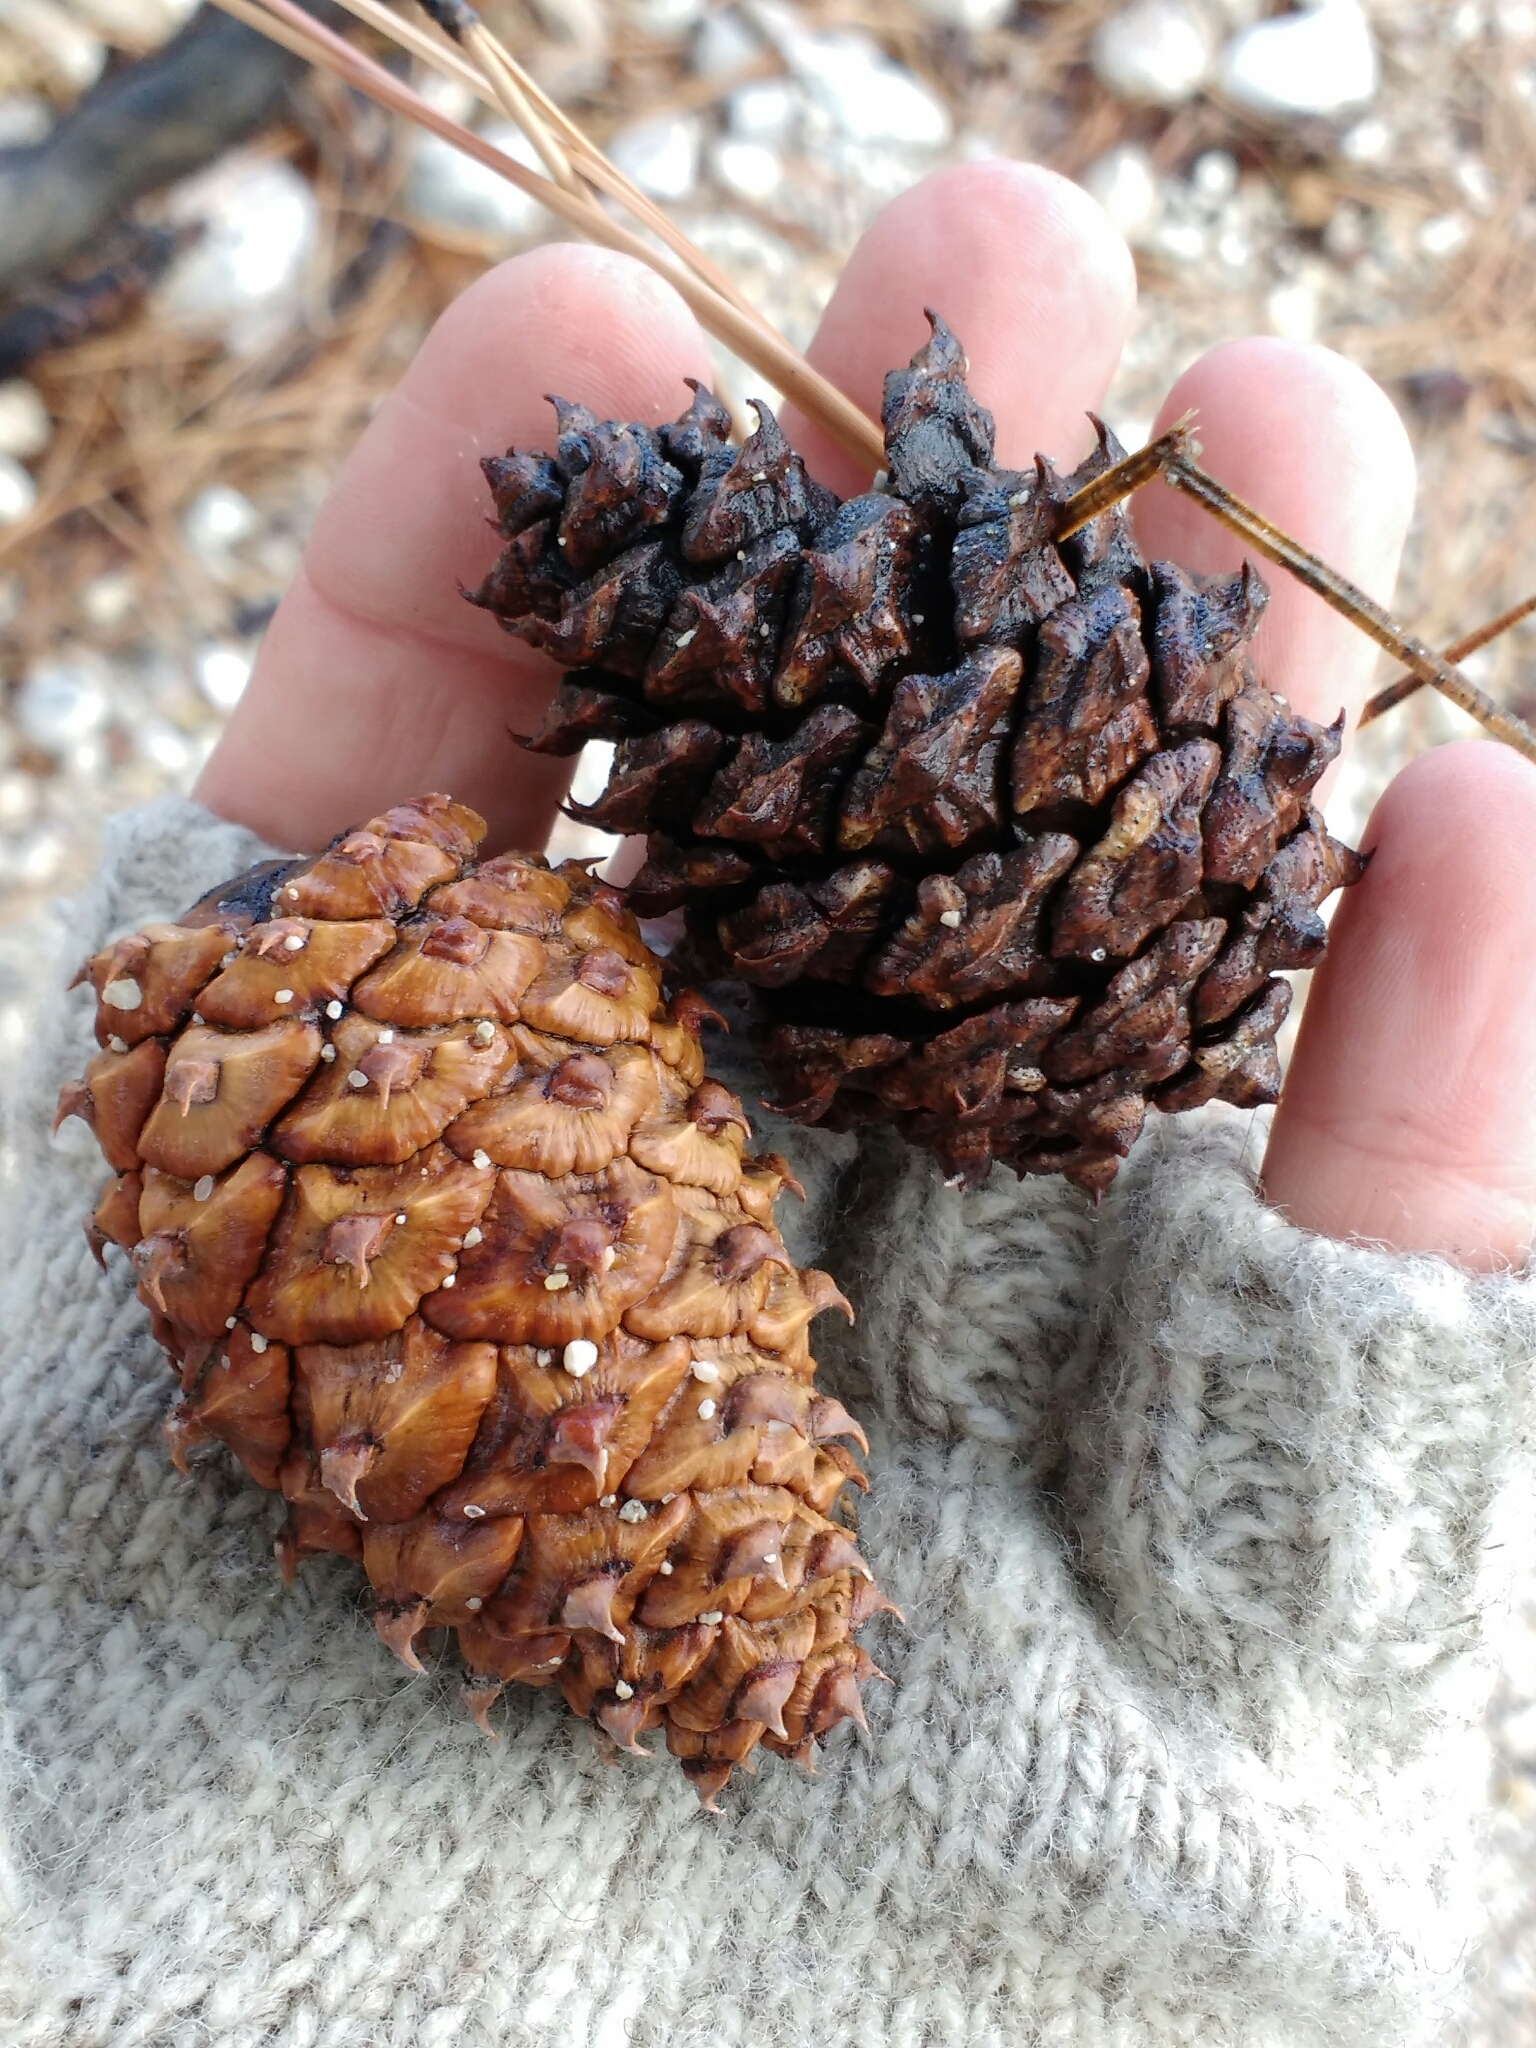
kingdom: Plantae
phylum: Tracheophyta
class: Pinopsida
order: Pinales
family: Pinaceae
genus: Pinus
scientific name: Pinus ponderosa
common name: Western yellow-pine
